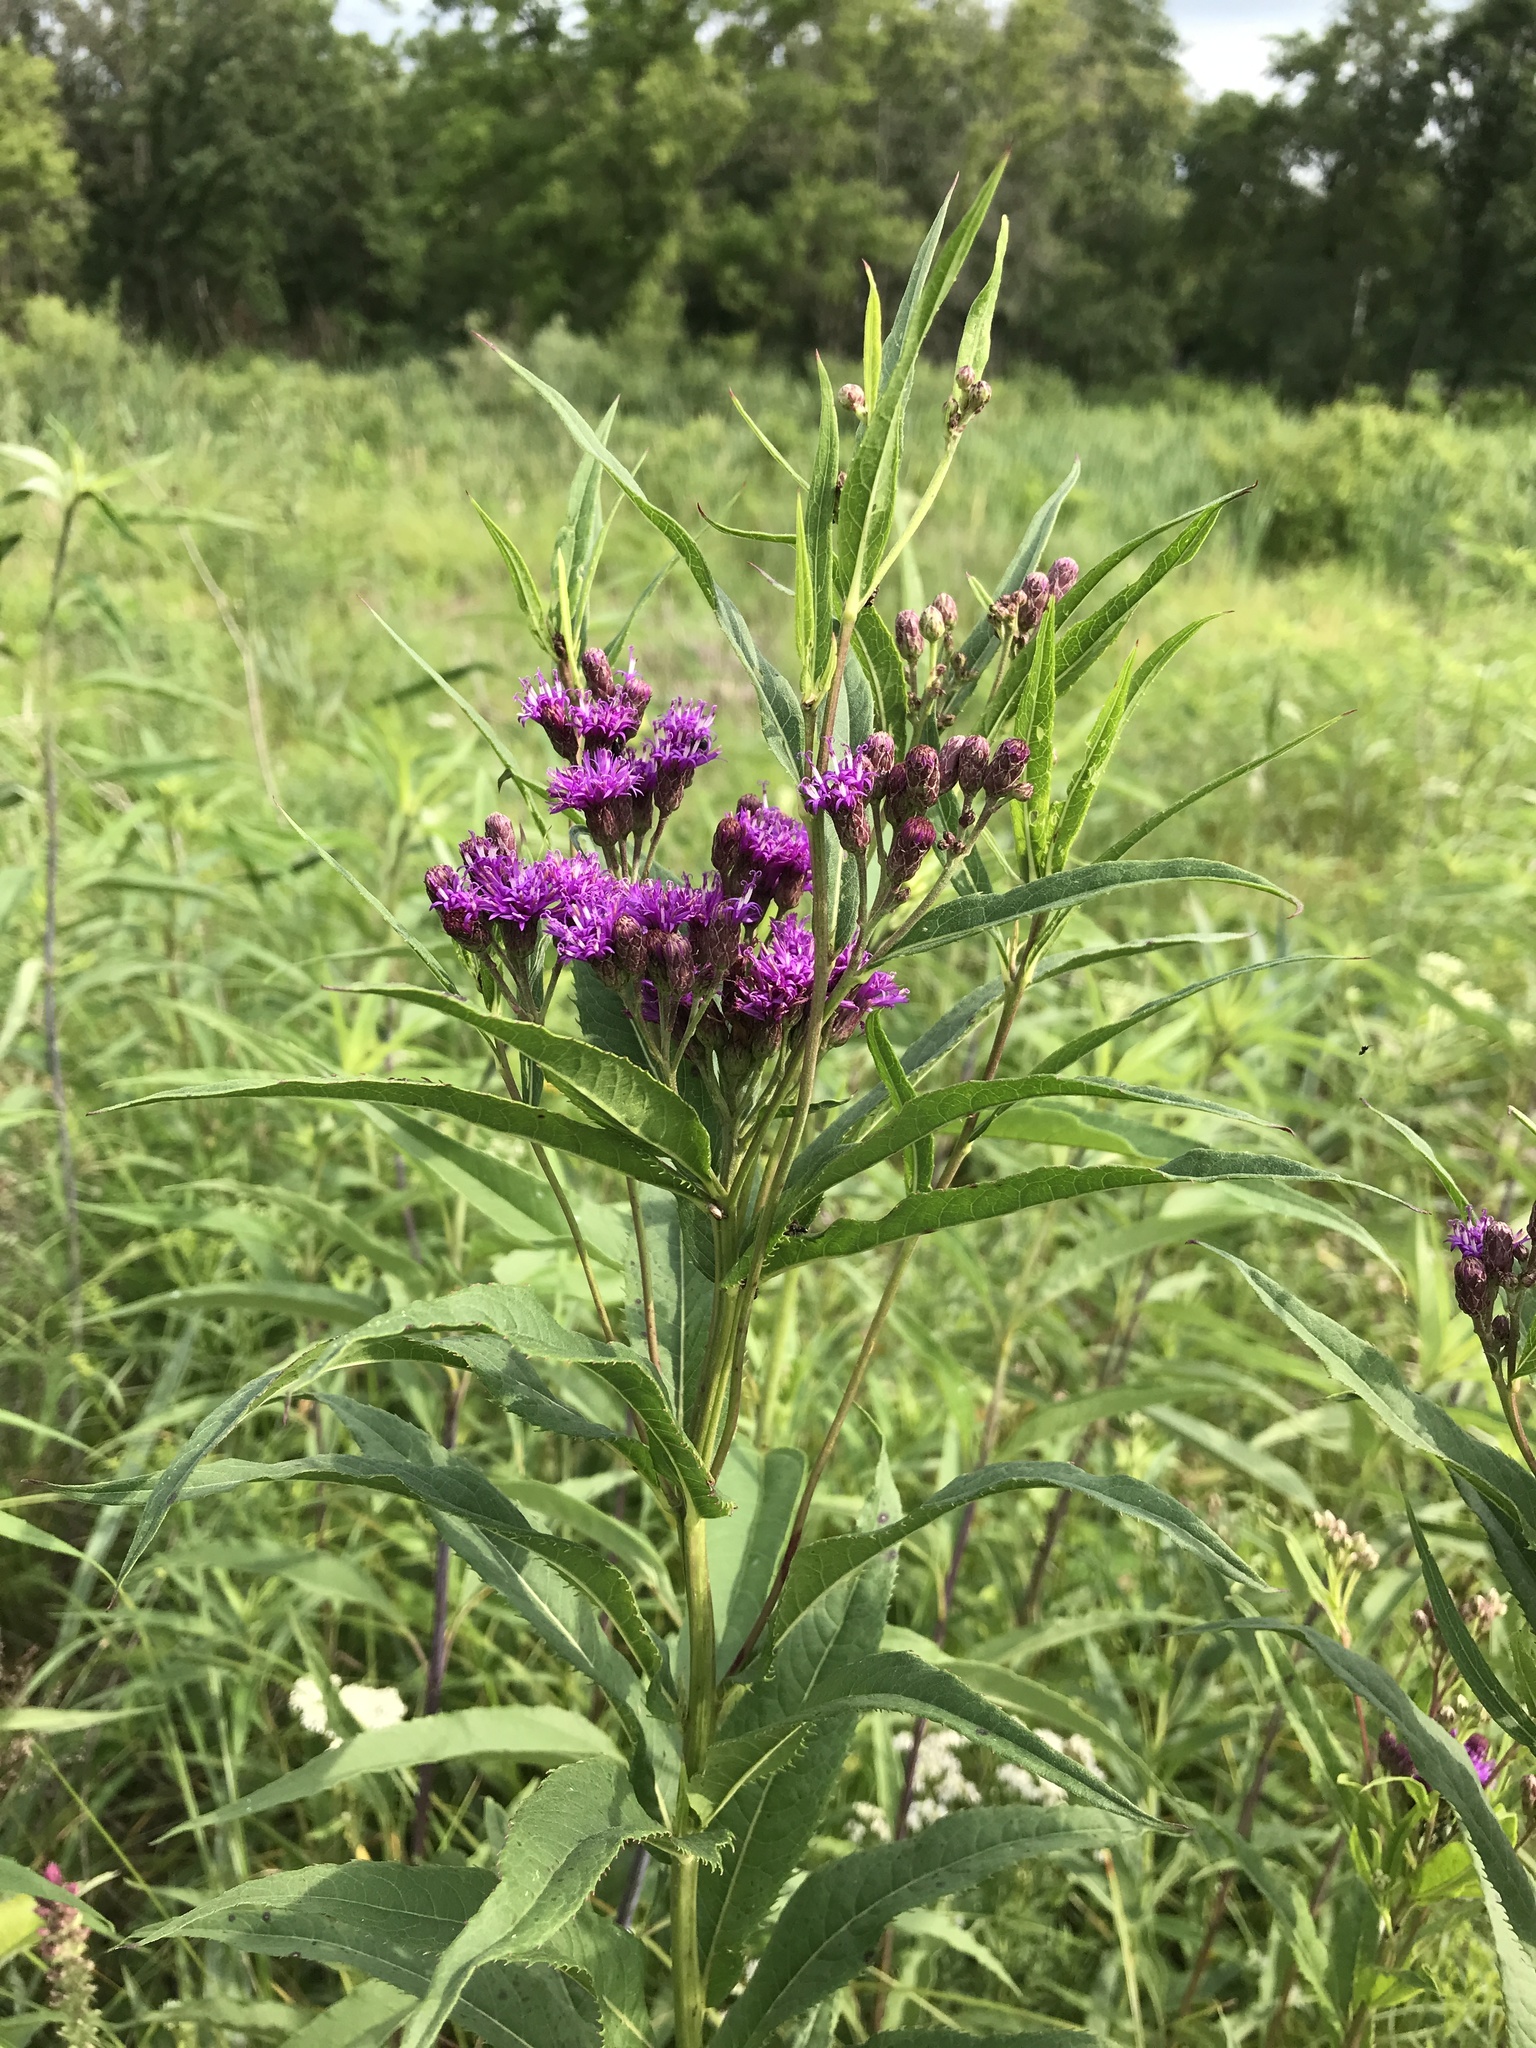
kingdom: Plantae
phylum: Tracheophyta
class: Magnoliopsida
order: Asterales
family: Asteraceae
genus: Vernonia
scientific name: Vernonia fasciculata
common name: Fascicled ironweed
